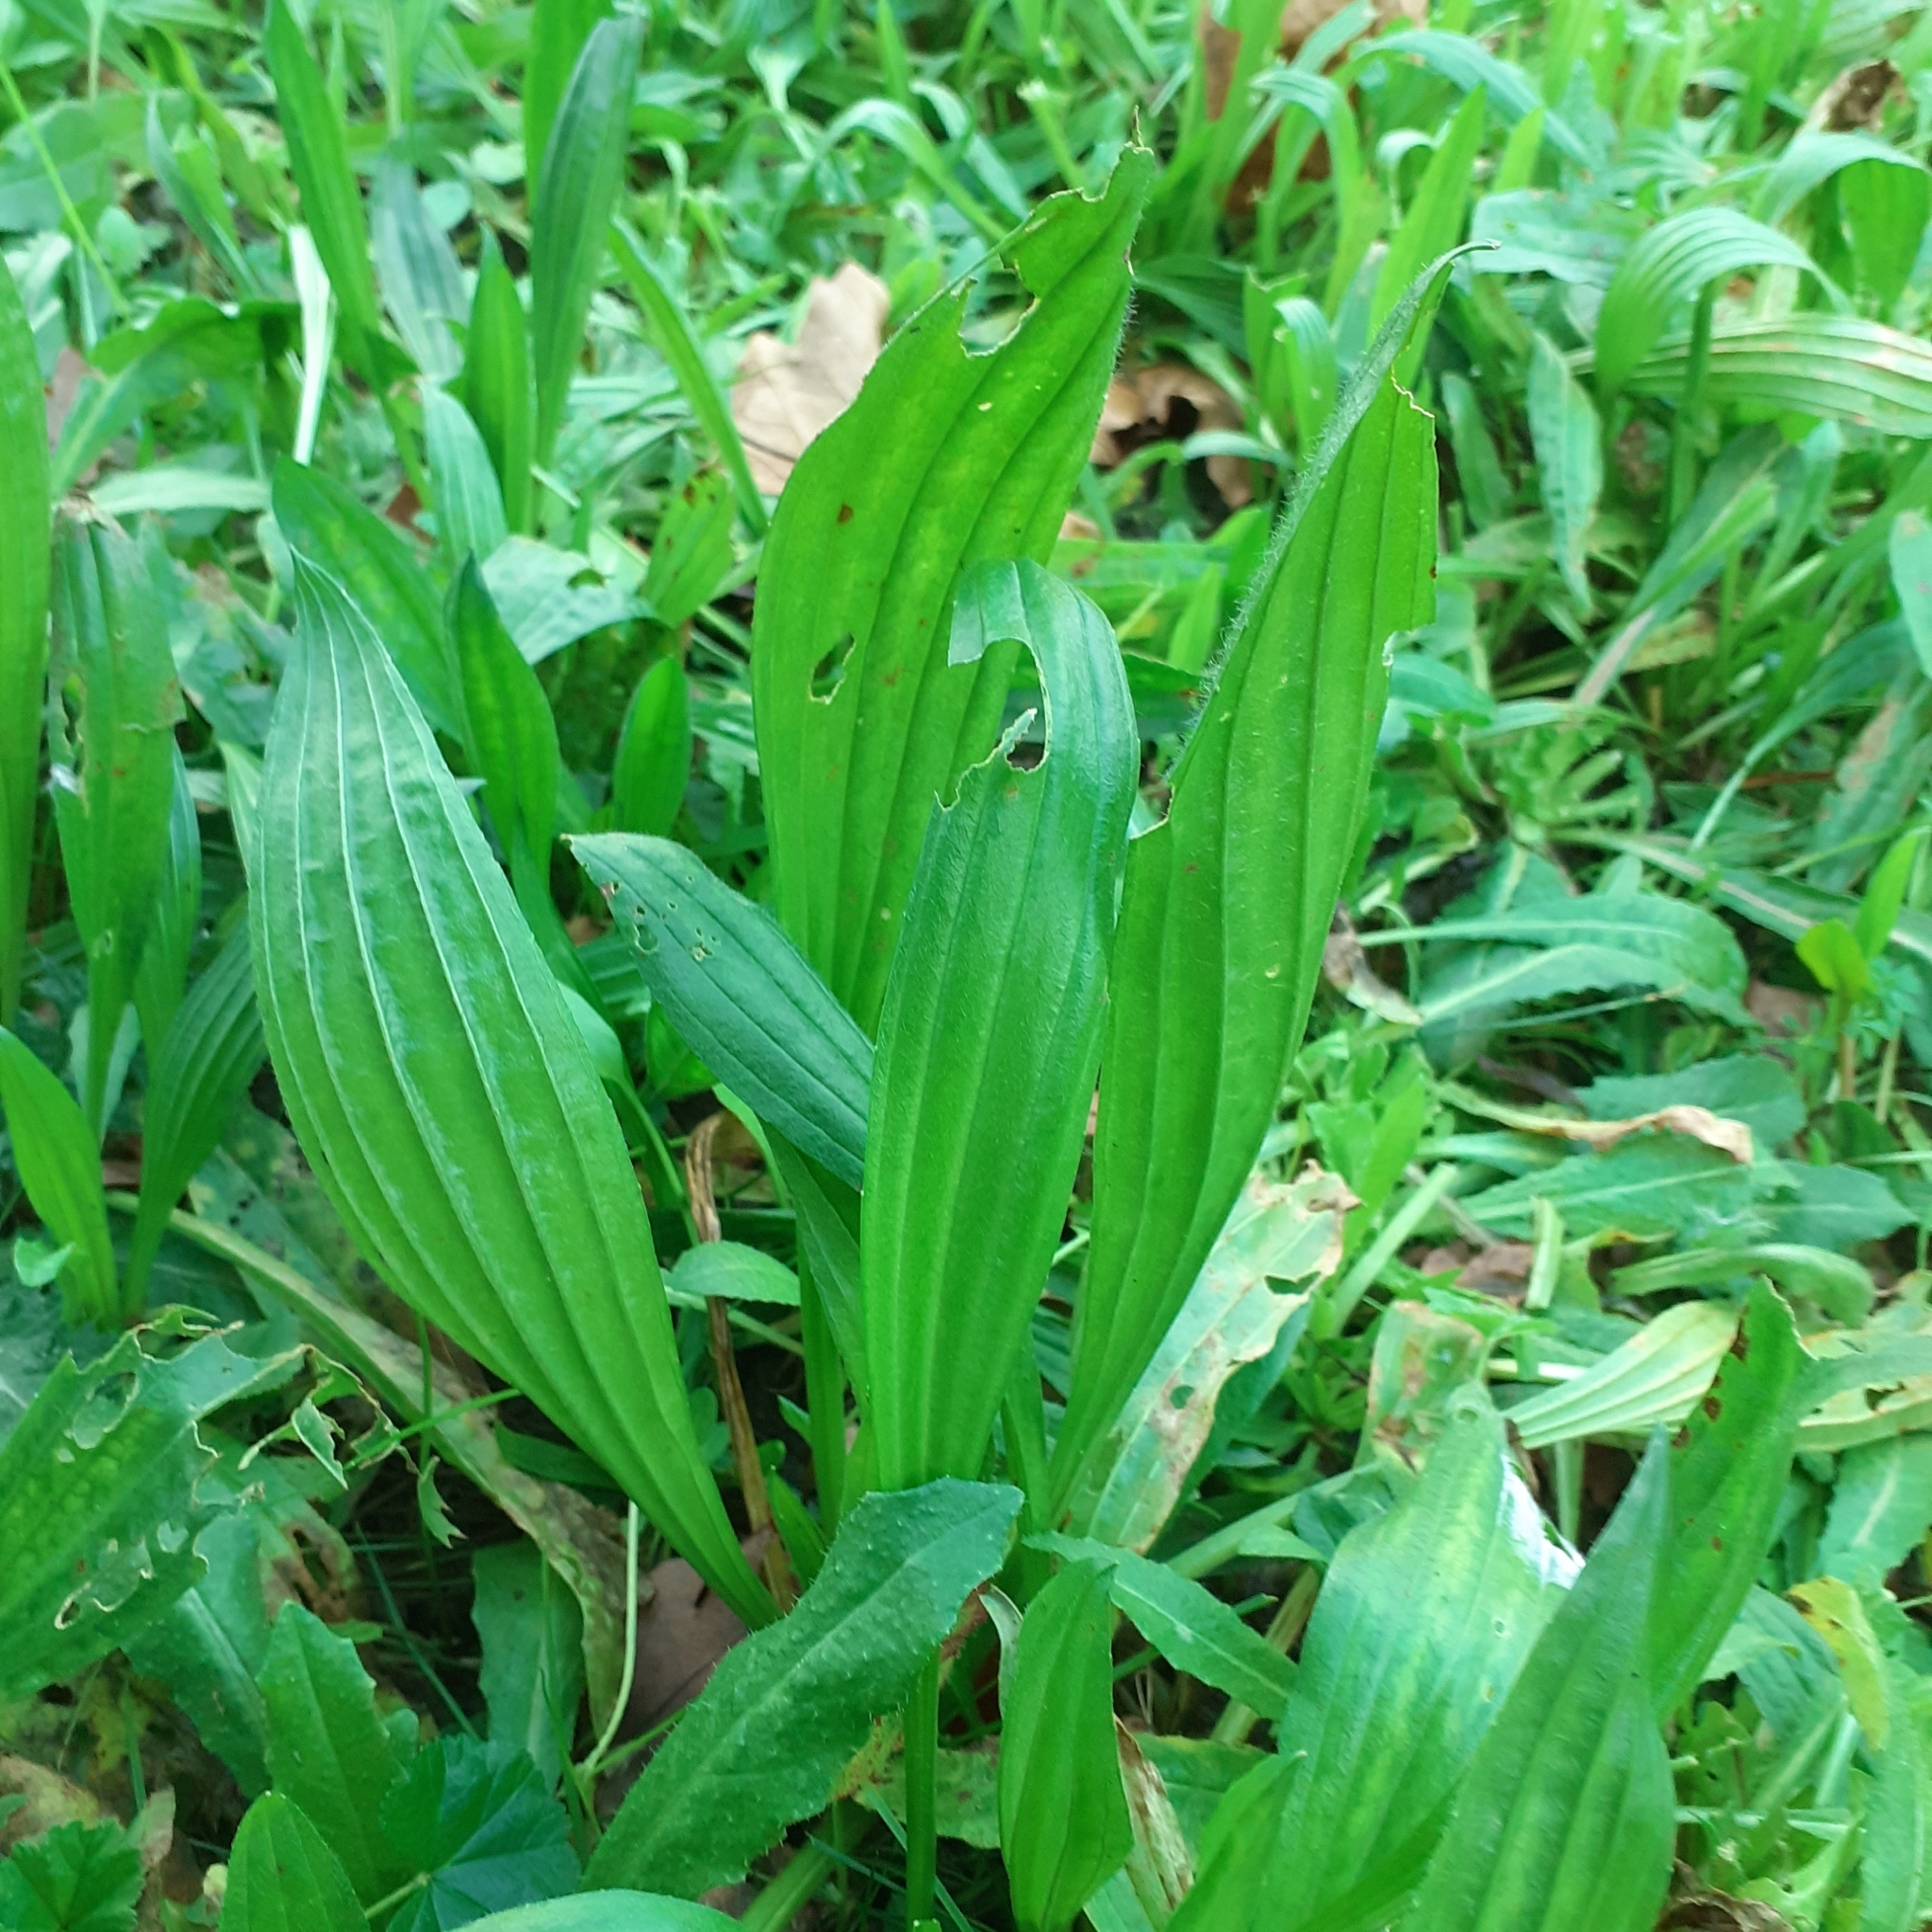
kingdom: Plantae
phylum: Tracheophyta
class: Magnoliopsida
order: Lamiales
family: Plantaginaceae
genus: Plantago
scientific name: Plantago lanceolata
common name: Ribwort plantain
